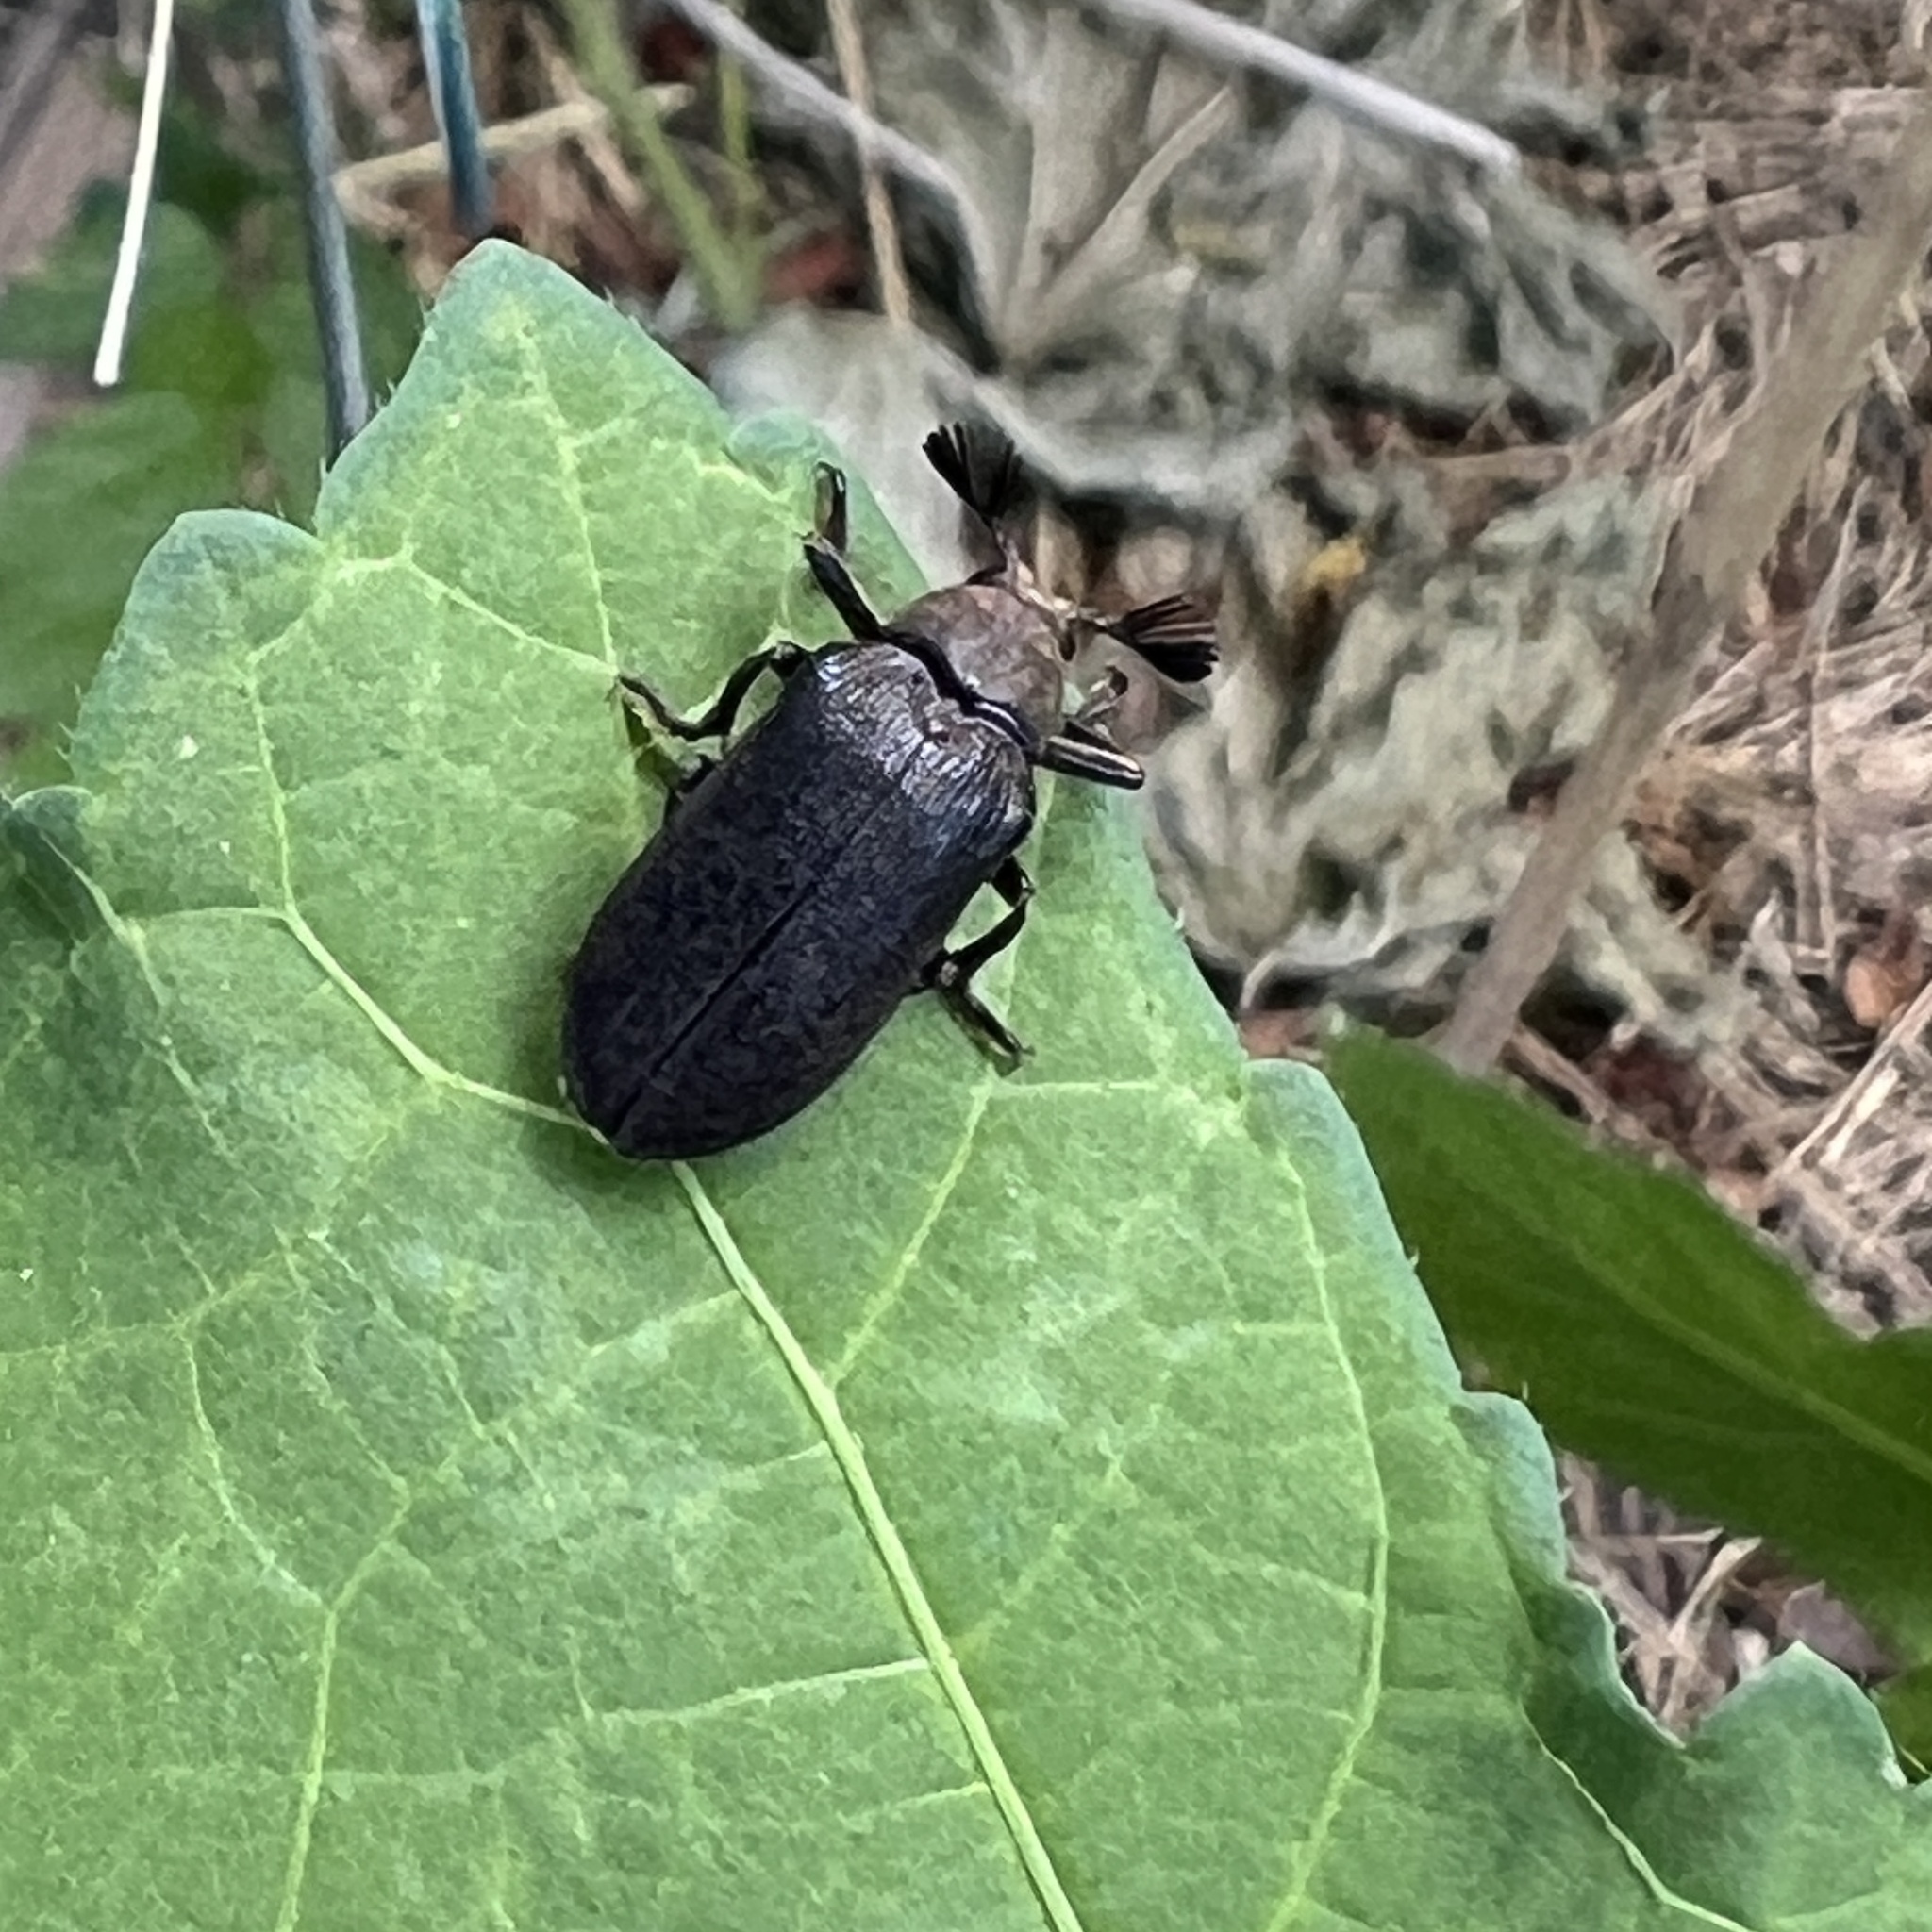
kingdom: Animalia
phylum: Arthropoda
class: Insecta
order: Coleoptera
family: Rhipiceridae
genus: Sandalus
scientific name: Sandalus niger
